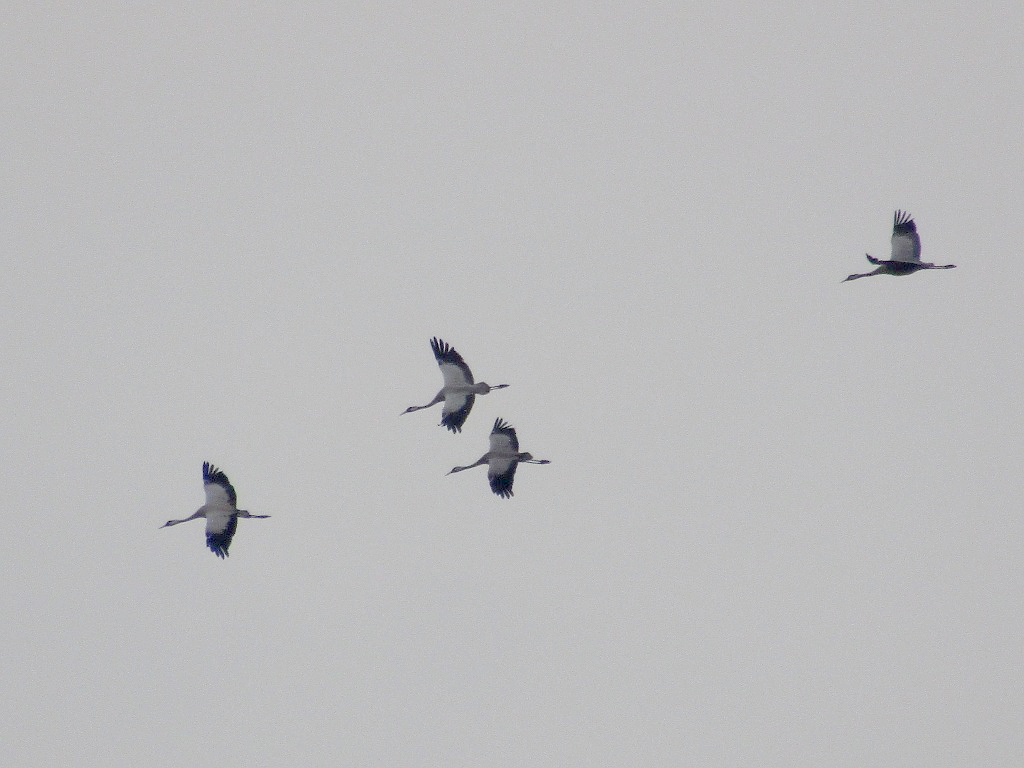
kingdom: Animalia
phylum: Chordata
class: Aves
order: Gruiformes
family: Gruidae
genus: Grus
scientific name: Grus grus
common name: Common crane
